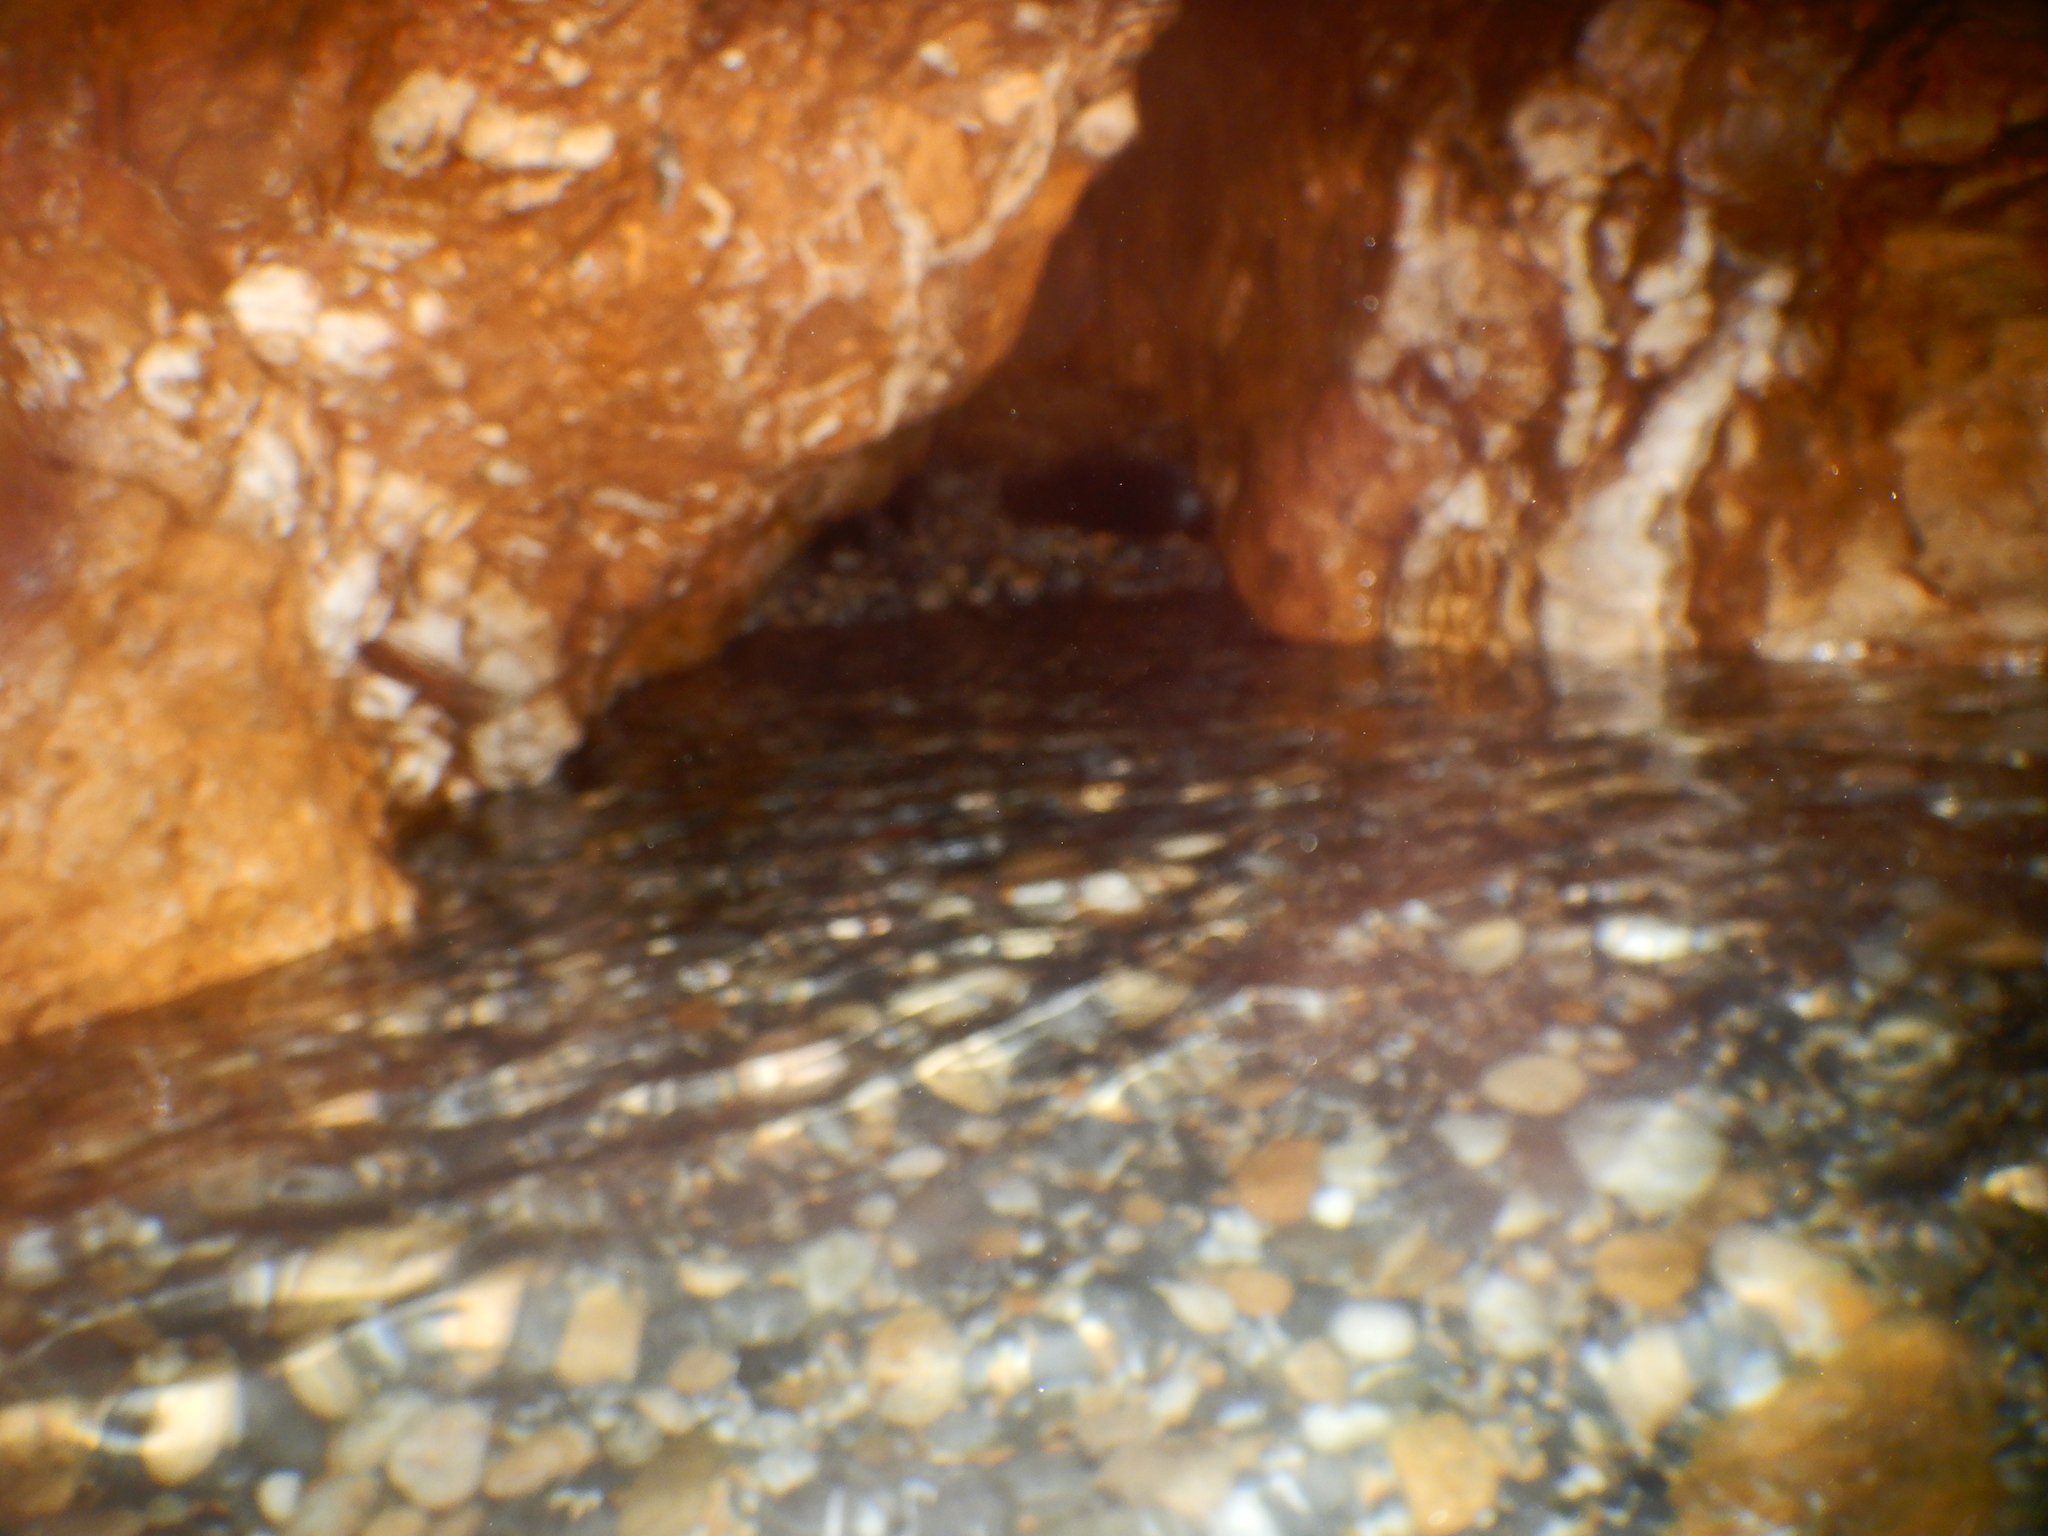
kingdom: Animalia
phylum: Chordata
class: Mammalia
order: Carnivora
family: Phocidae
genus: Monachus
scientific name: Monachus monachus
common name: Mediterranean monk seal
